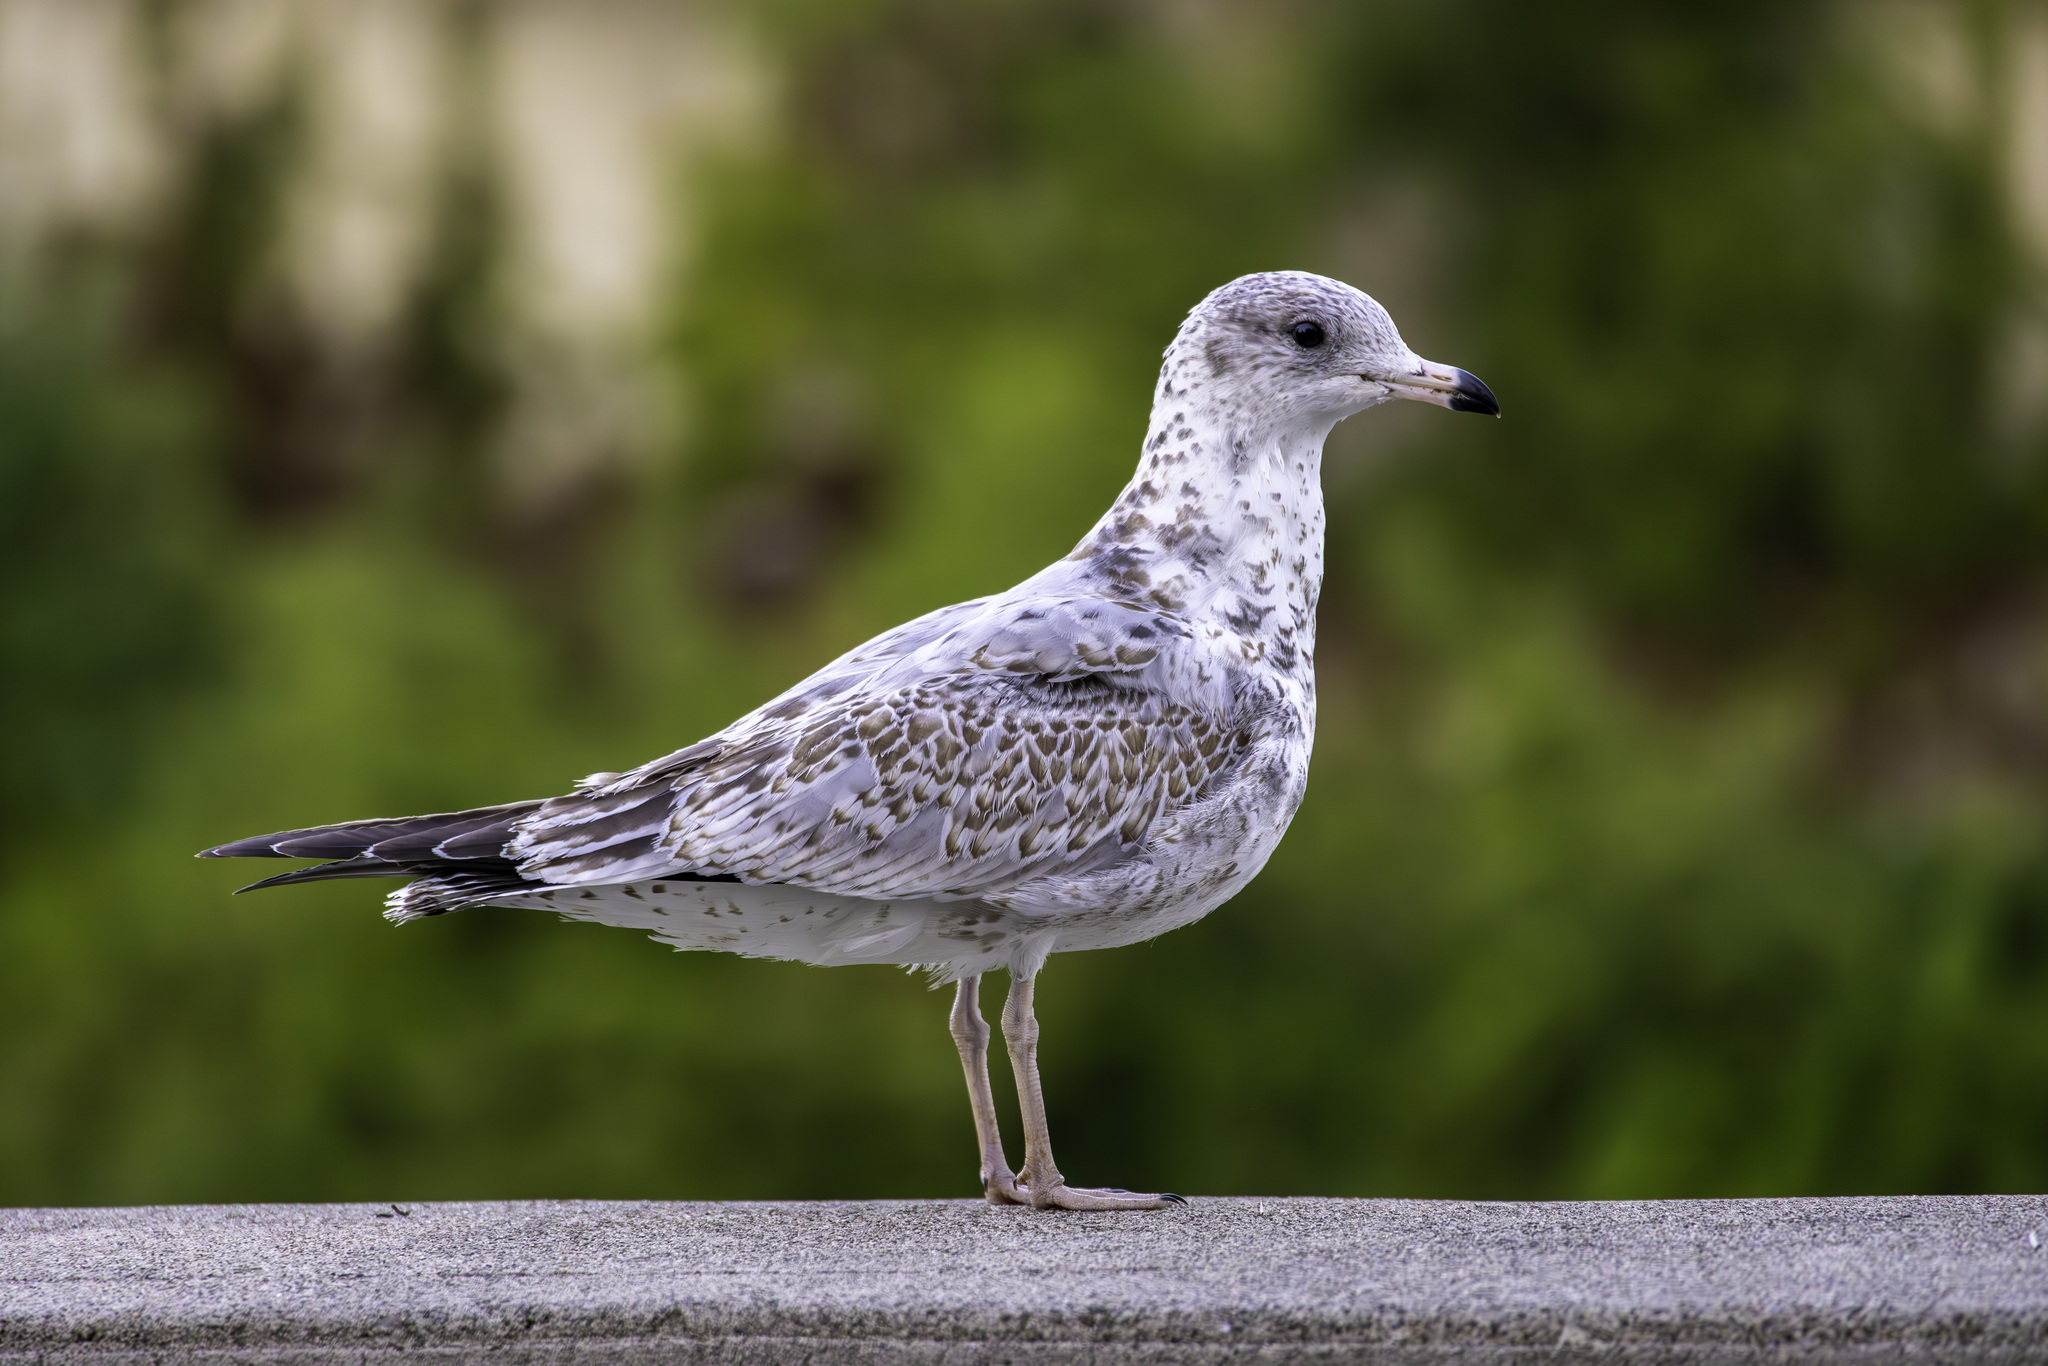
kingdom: Animalia
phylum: Chordata
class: Aves
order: Charadriiformes
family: Laridae
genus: Larus
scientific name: Larus delawarensis
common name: Ring-billed gull
